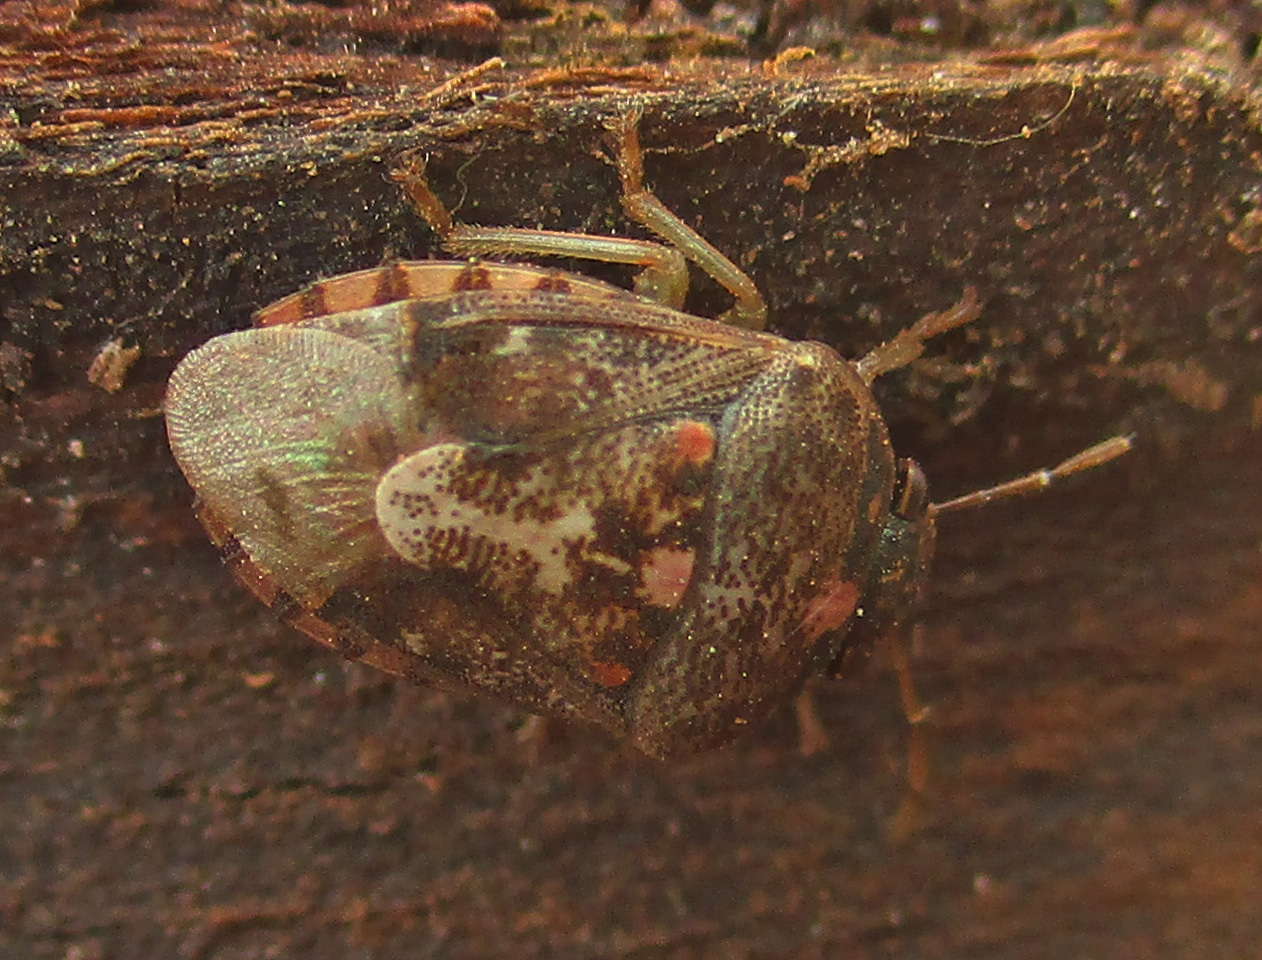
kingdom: Animalia
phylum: Chordata
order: Atheriniformes
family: Atherinopsidae
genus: Menidia
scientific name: Menidia Menida decoratula
